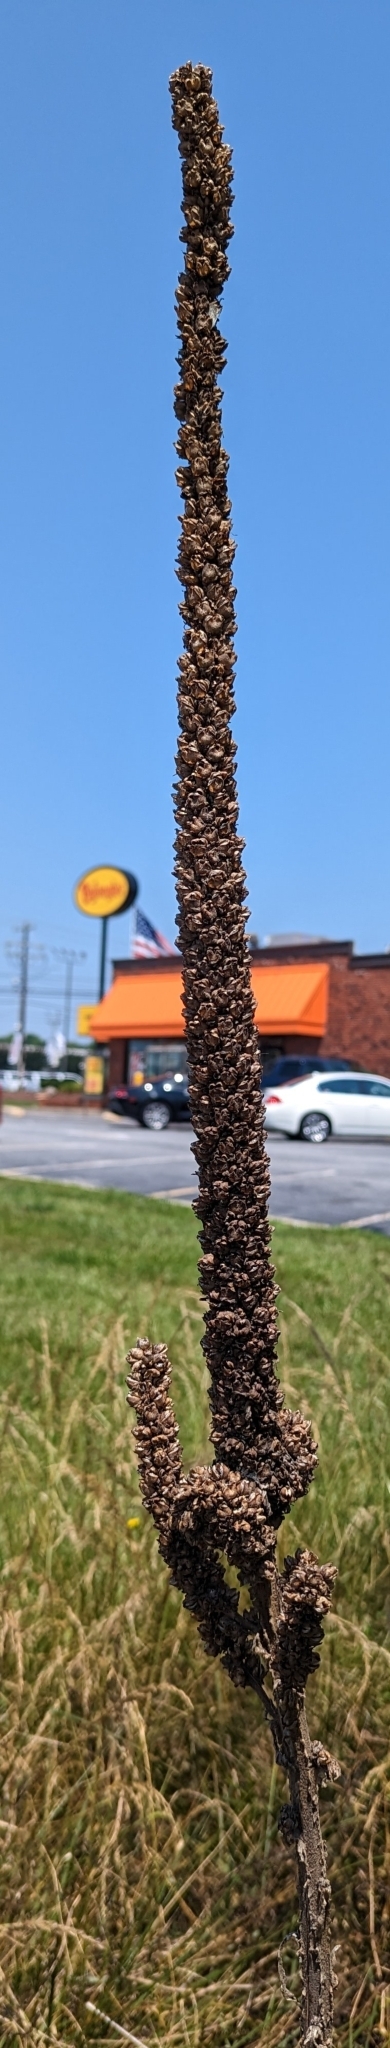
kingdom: Plantae
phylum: Tracheophyta
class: Magnoliopsida
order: Lamiales
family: Scrophulariaceae
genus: Verbascum
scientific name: Verbascum thapsus
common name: Common mullein
